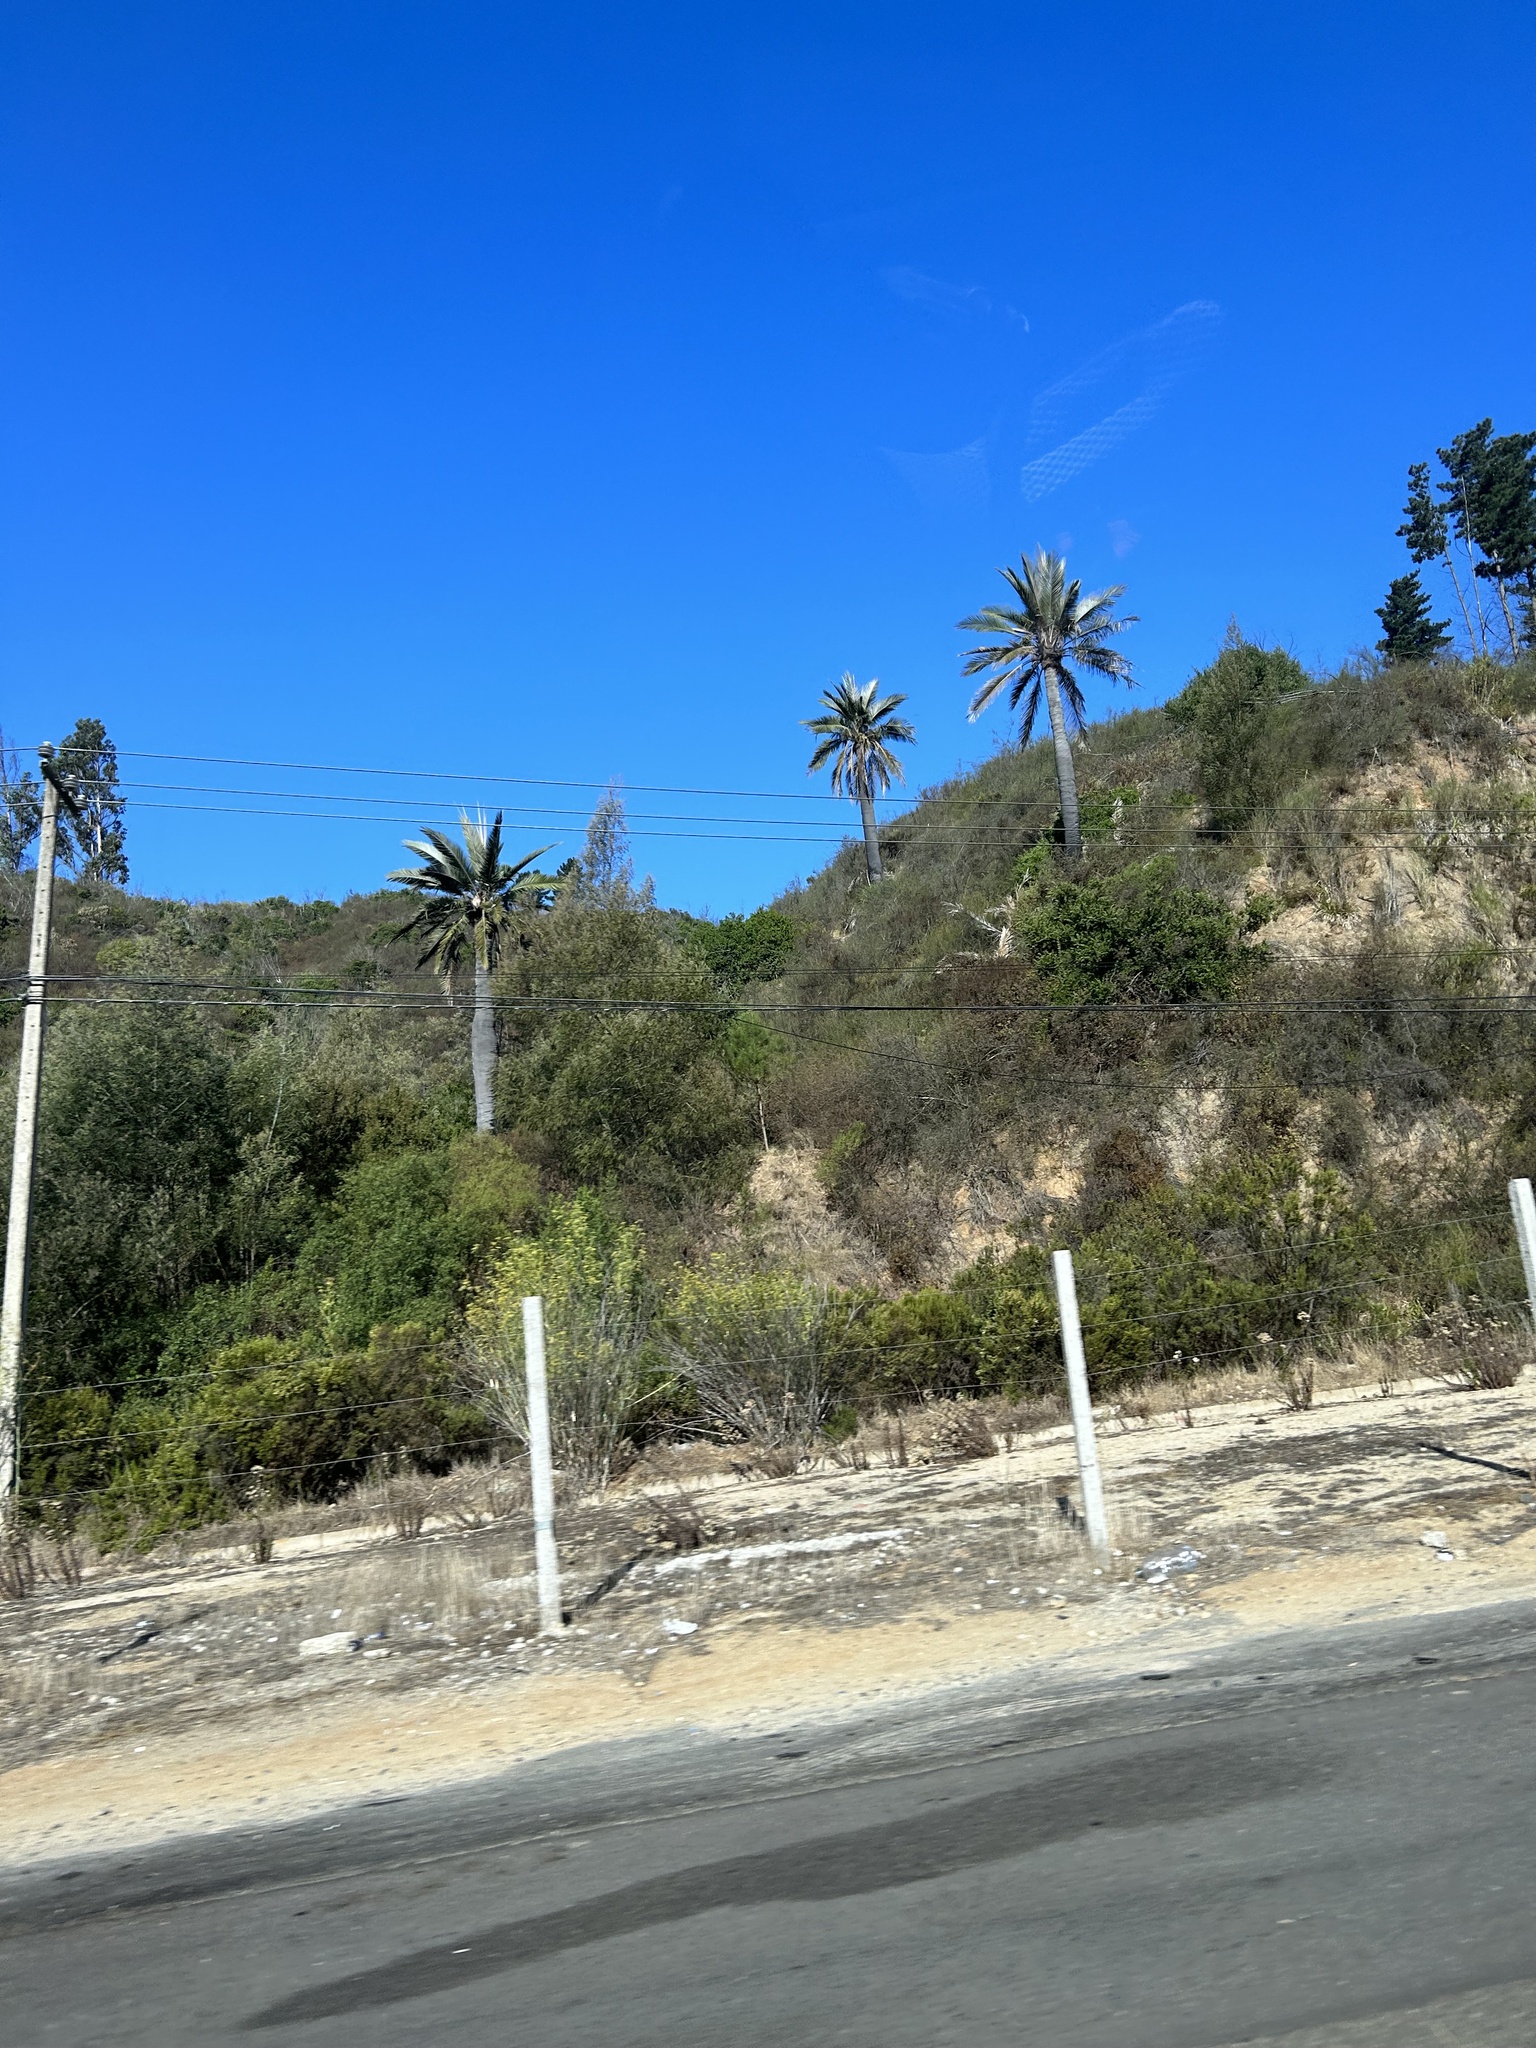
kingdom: Plantae
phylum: Tracheophyta
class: Liliopsida
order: Arecales
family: Arecaceae
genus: Jubaea
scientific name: Jubaea chilensis
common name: Coquito palm
